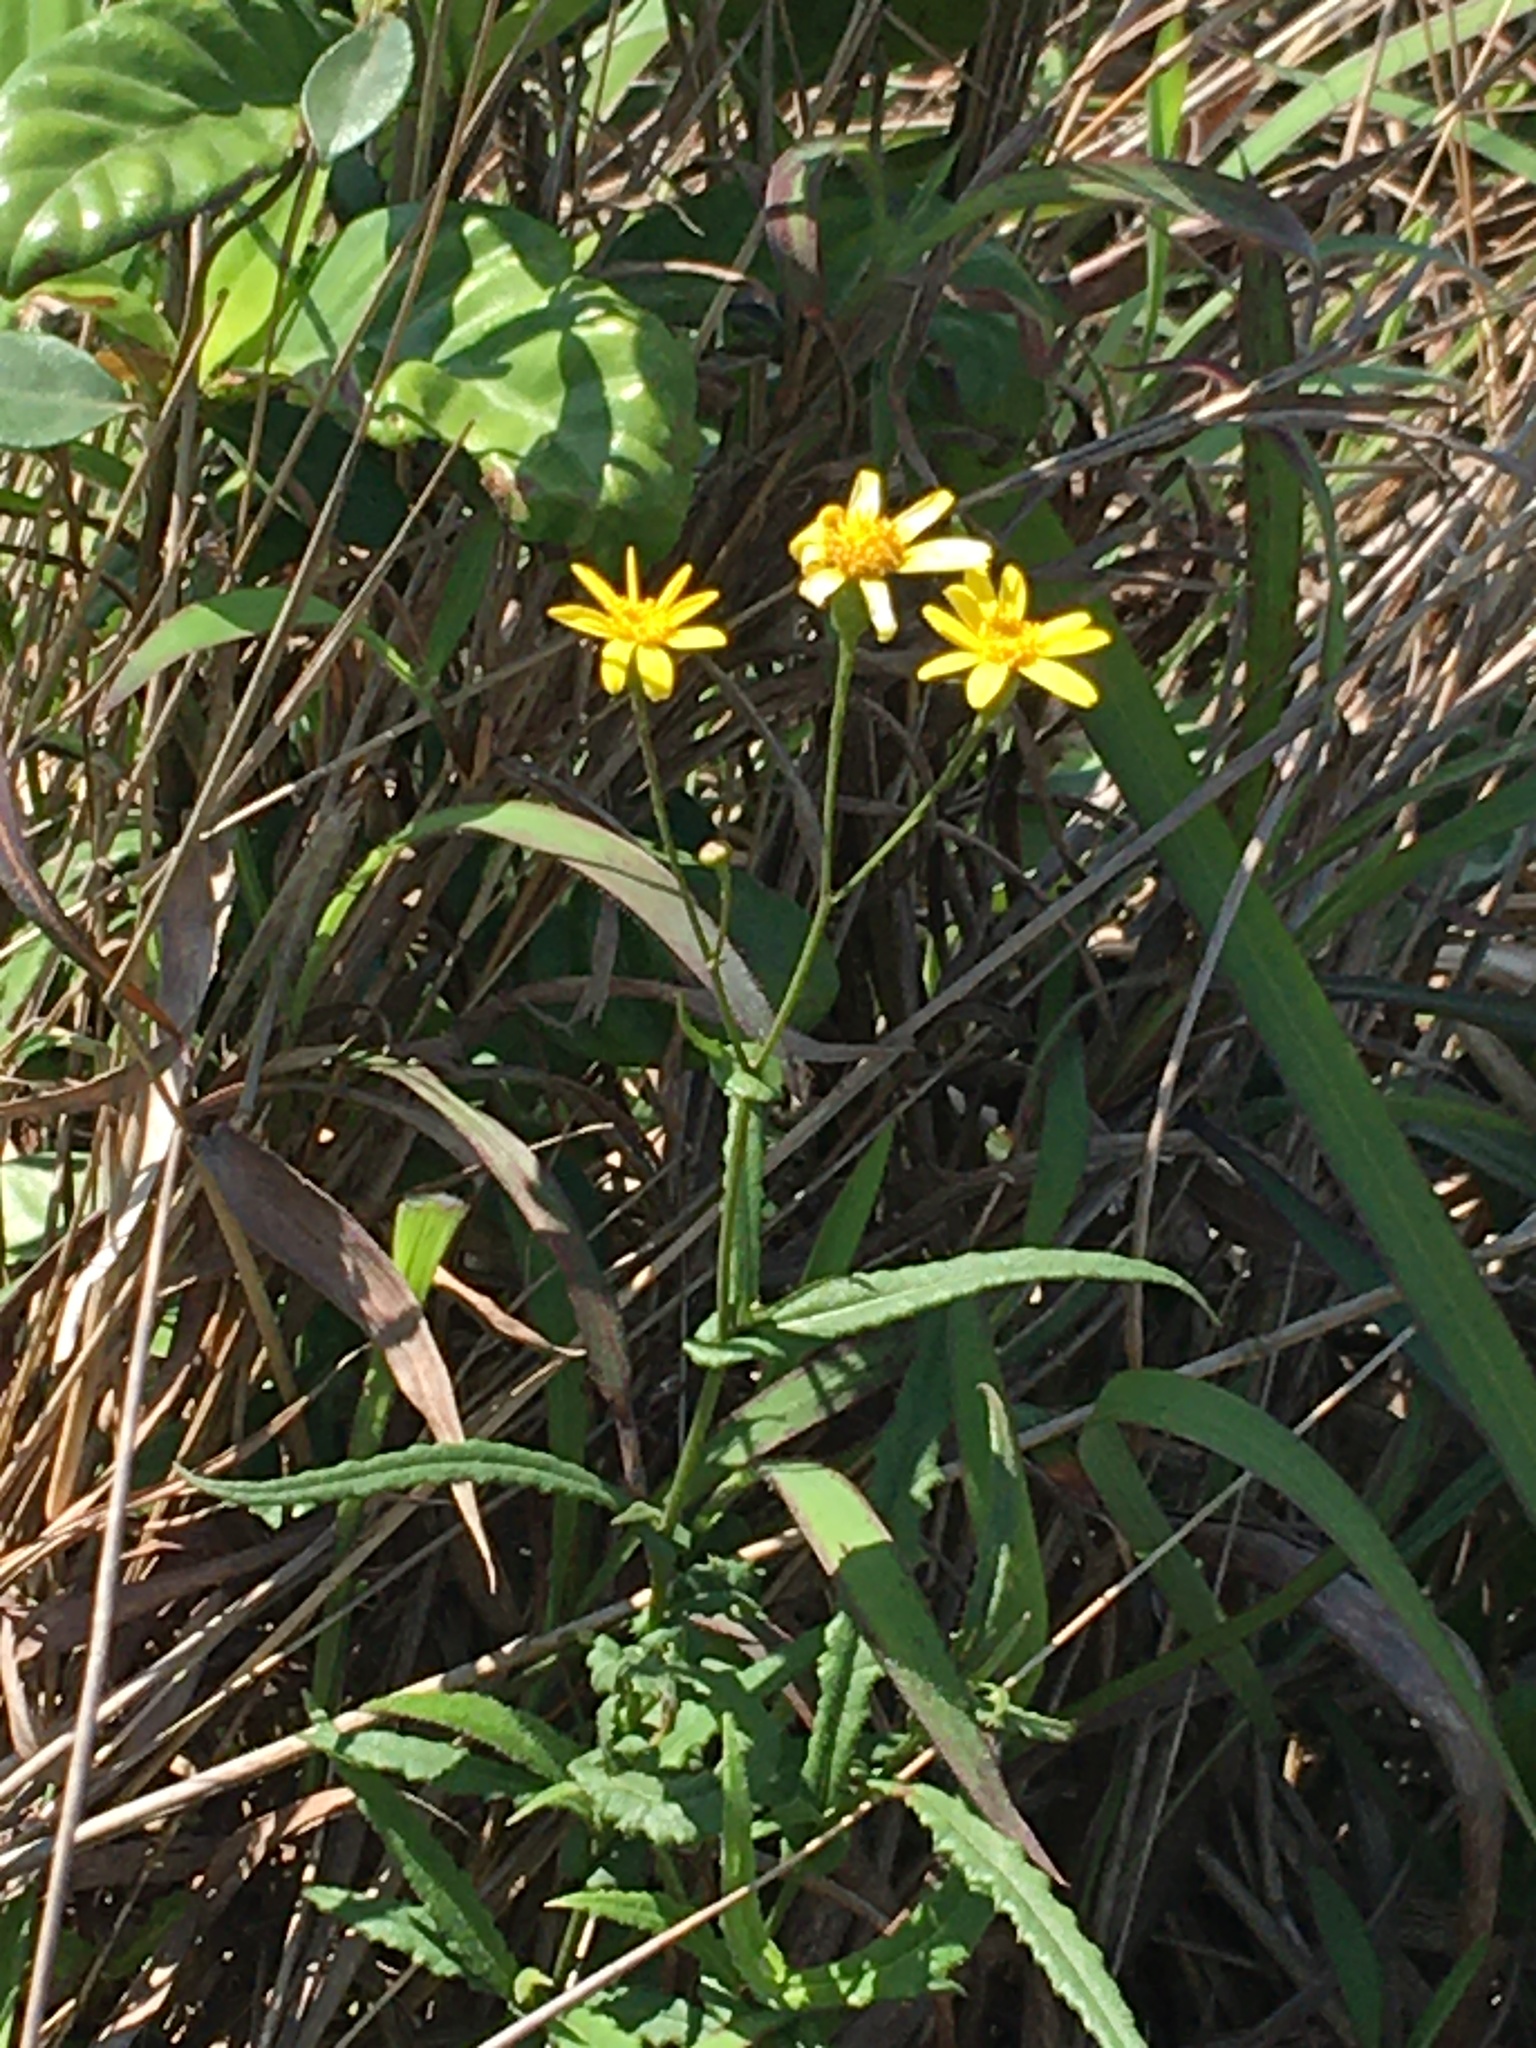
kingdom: Plantae
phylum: Tracheophyta
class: Magnoliopsida
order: Asterales
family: Asteraceae
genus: Senecio
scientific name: Senecio stauntonii
